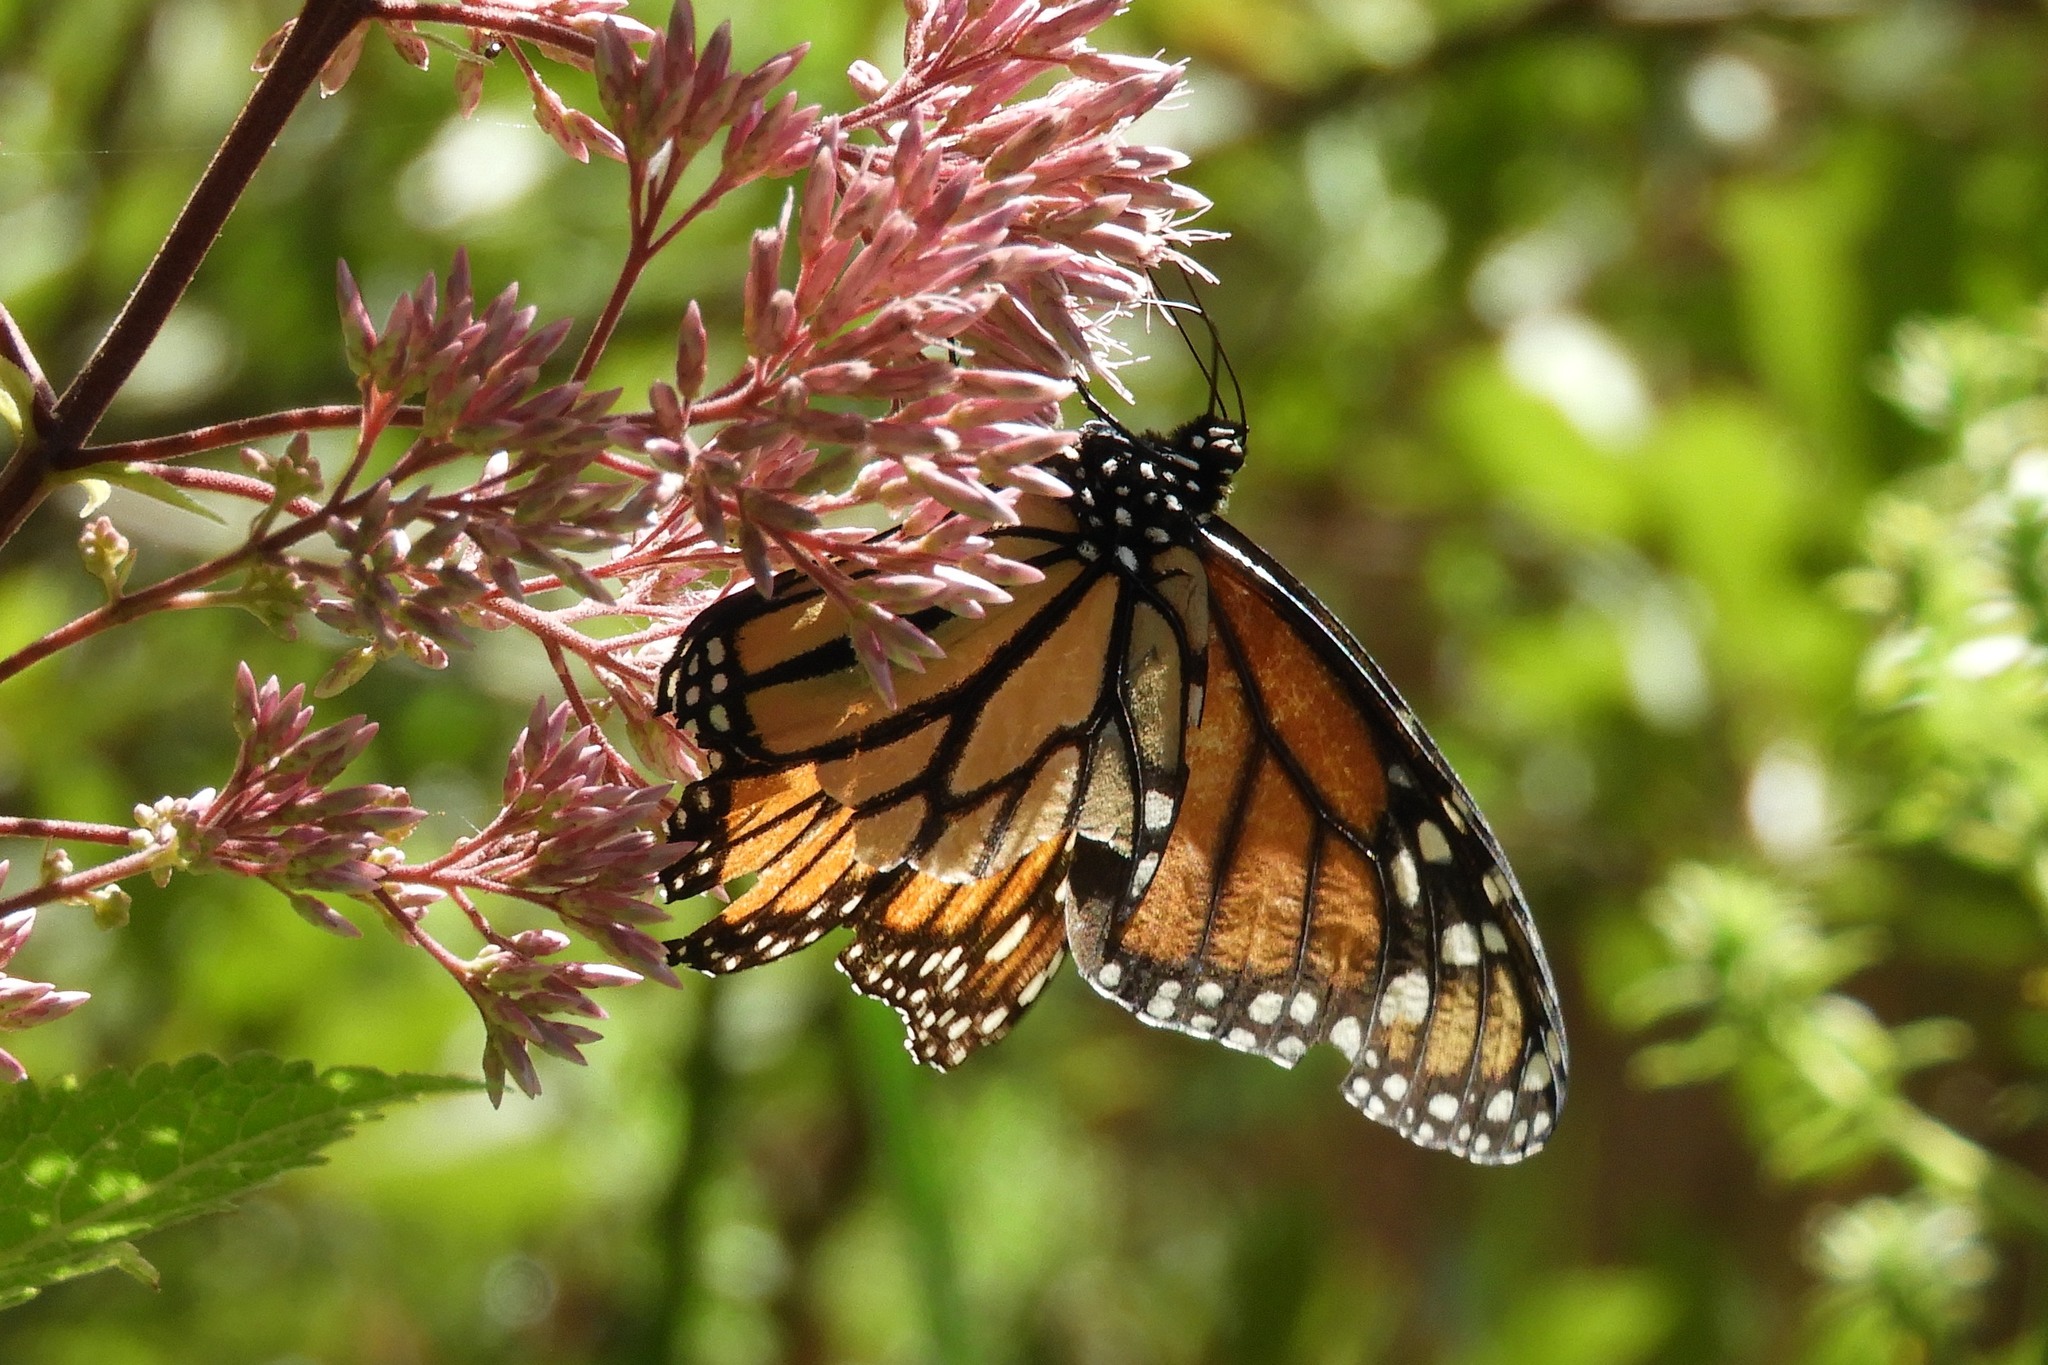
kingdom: Animalia
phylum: Arthropoda
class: Insecta
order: Lepidoptera
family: Nymphalidae
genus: Danaus
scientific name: Danaus plexippus
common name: Monarch
